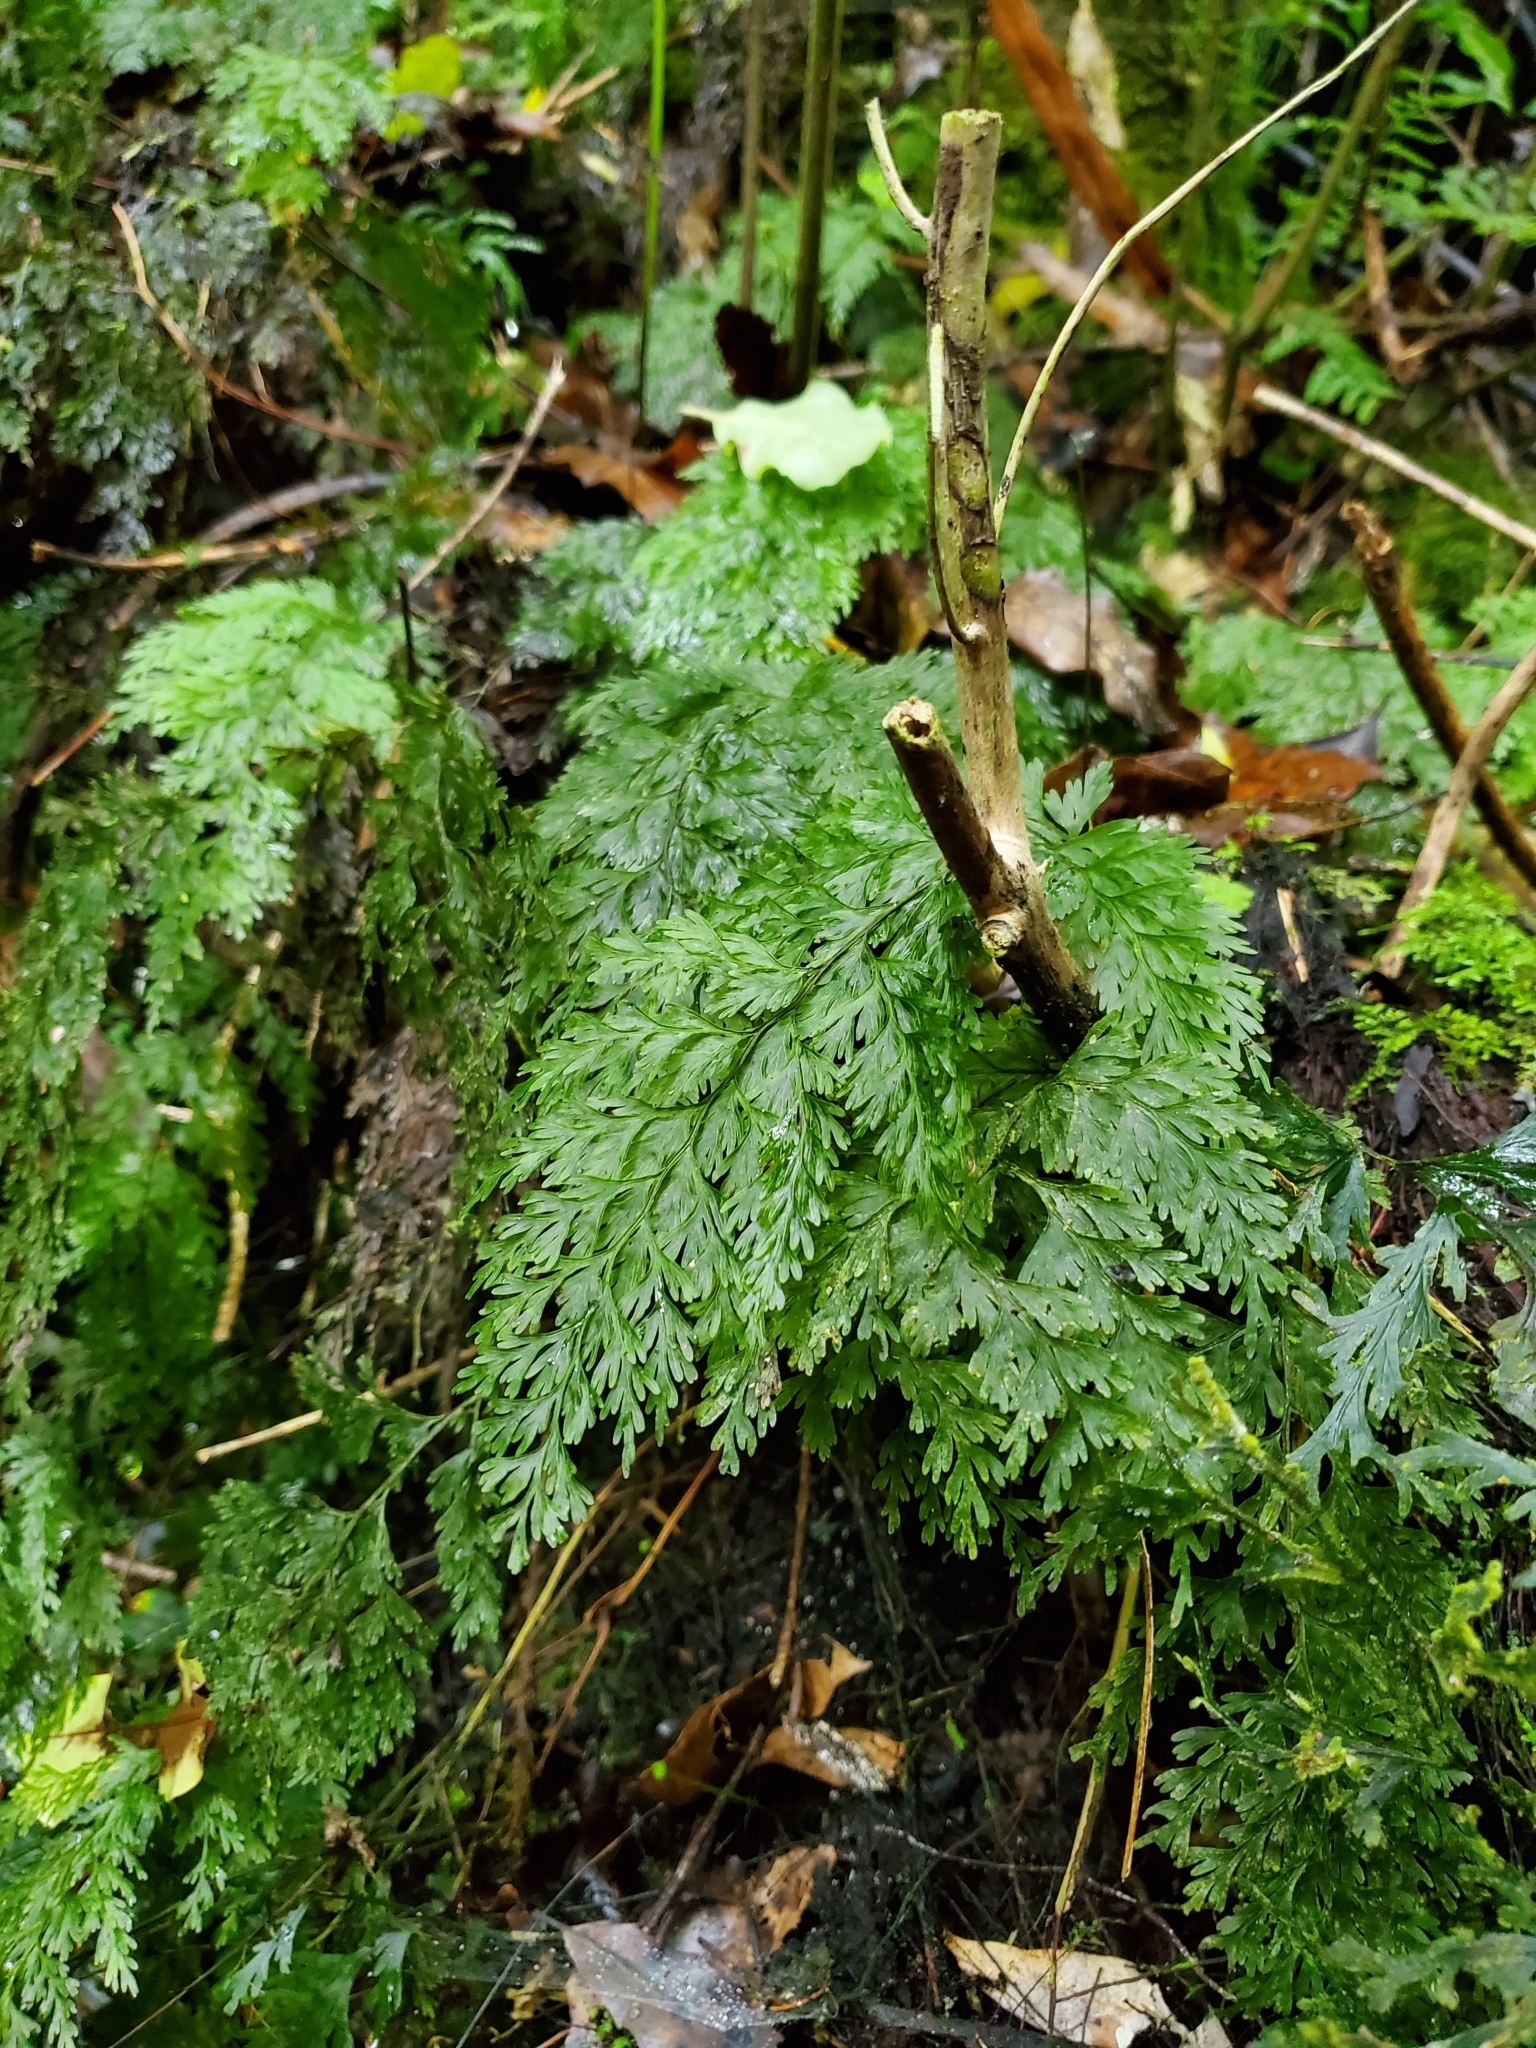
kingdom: Plantae
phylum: Tracheophyta
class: Polypodiopsida
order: Hymenophyllales
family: Hymenophyllaceae
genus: Hymenophyllum
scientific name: Hymenophyllum demissum
